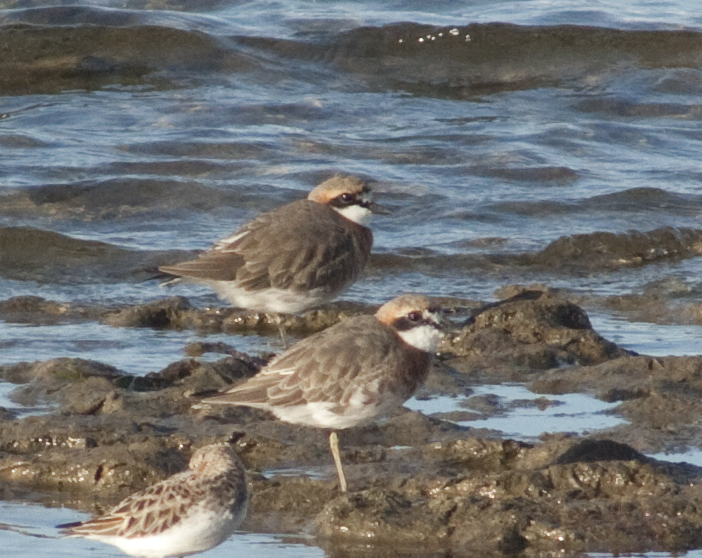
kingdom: Animalia
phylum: Chordata
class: Aves
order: Charadriiformes
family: Charadriidae
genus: Anarhynchus
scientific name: Anarhynchus
